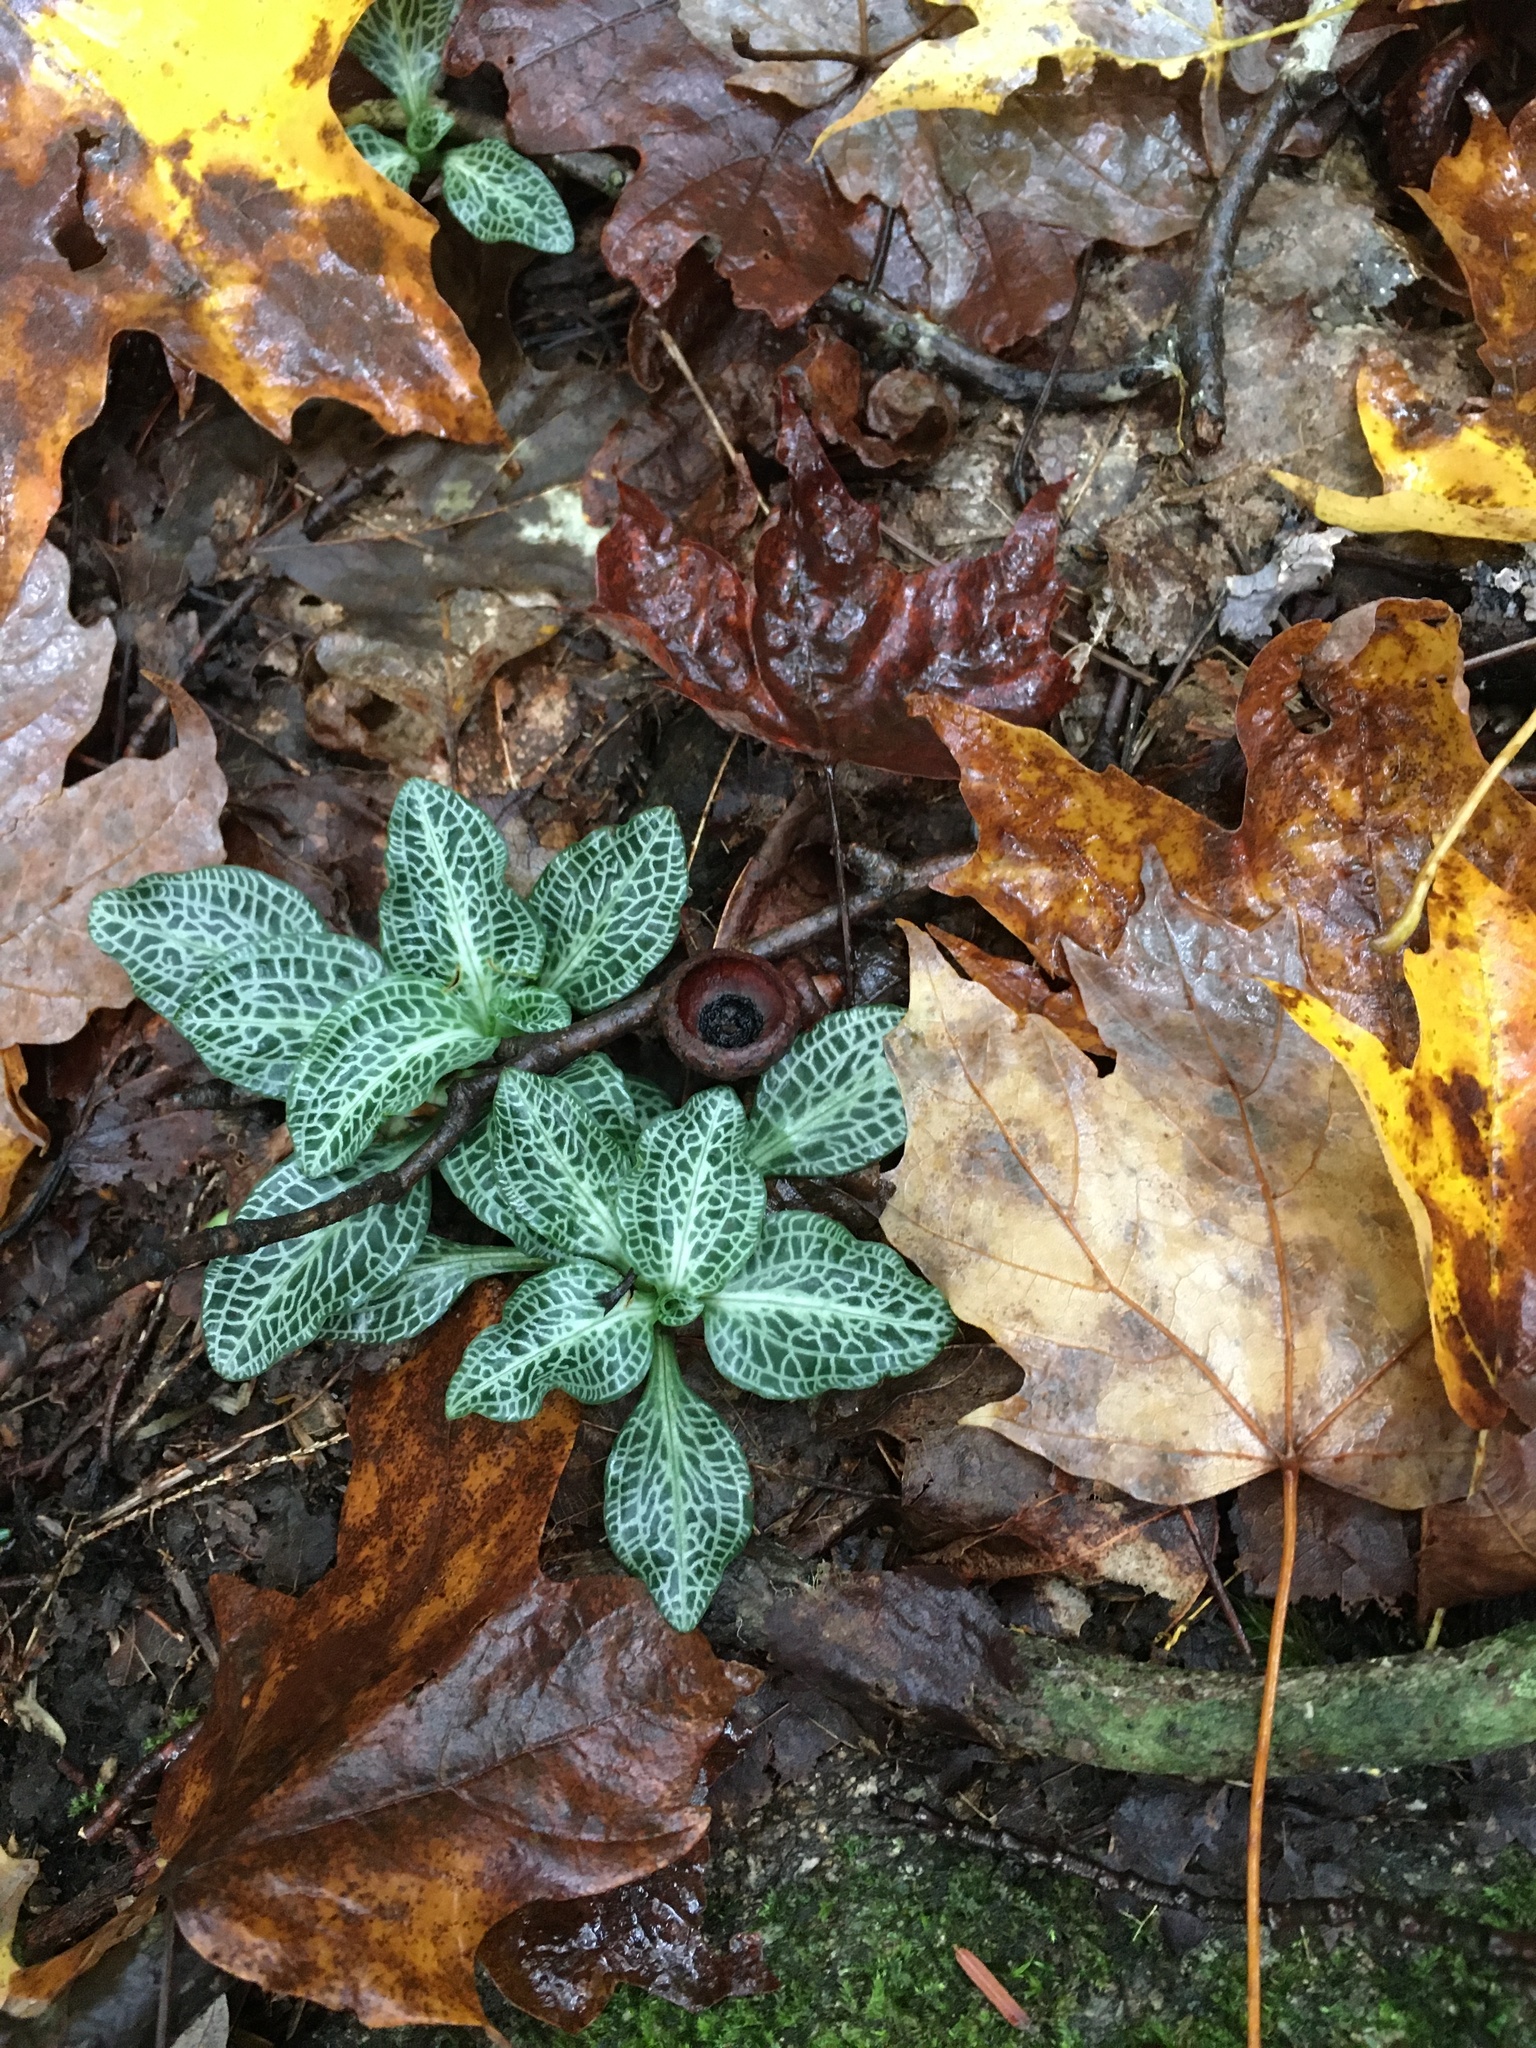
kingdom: Plantae
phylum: Tracheophyta
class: Liliopsida
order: Asparagales
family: Orchidaceae
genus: Goodyera
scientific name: Goodyera pubescens
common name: Downy rattlesnake-plantain
